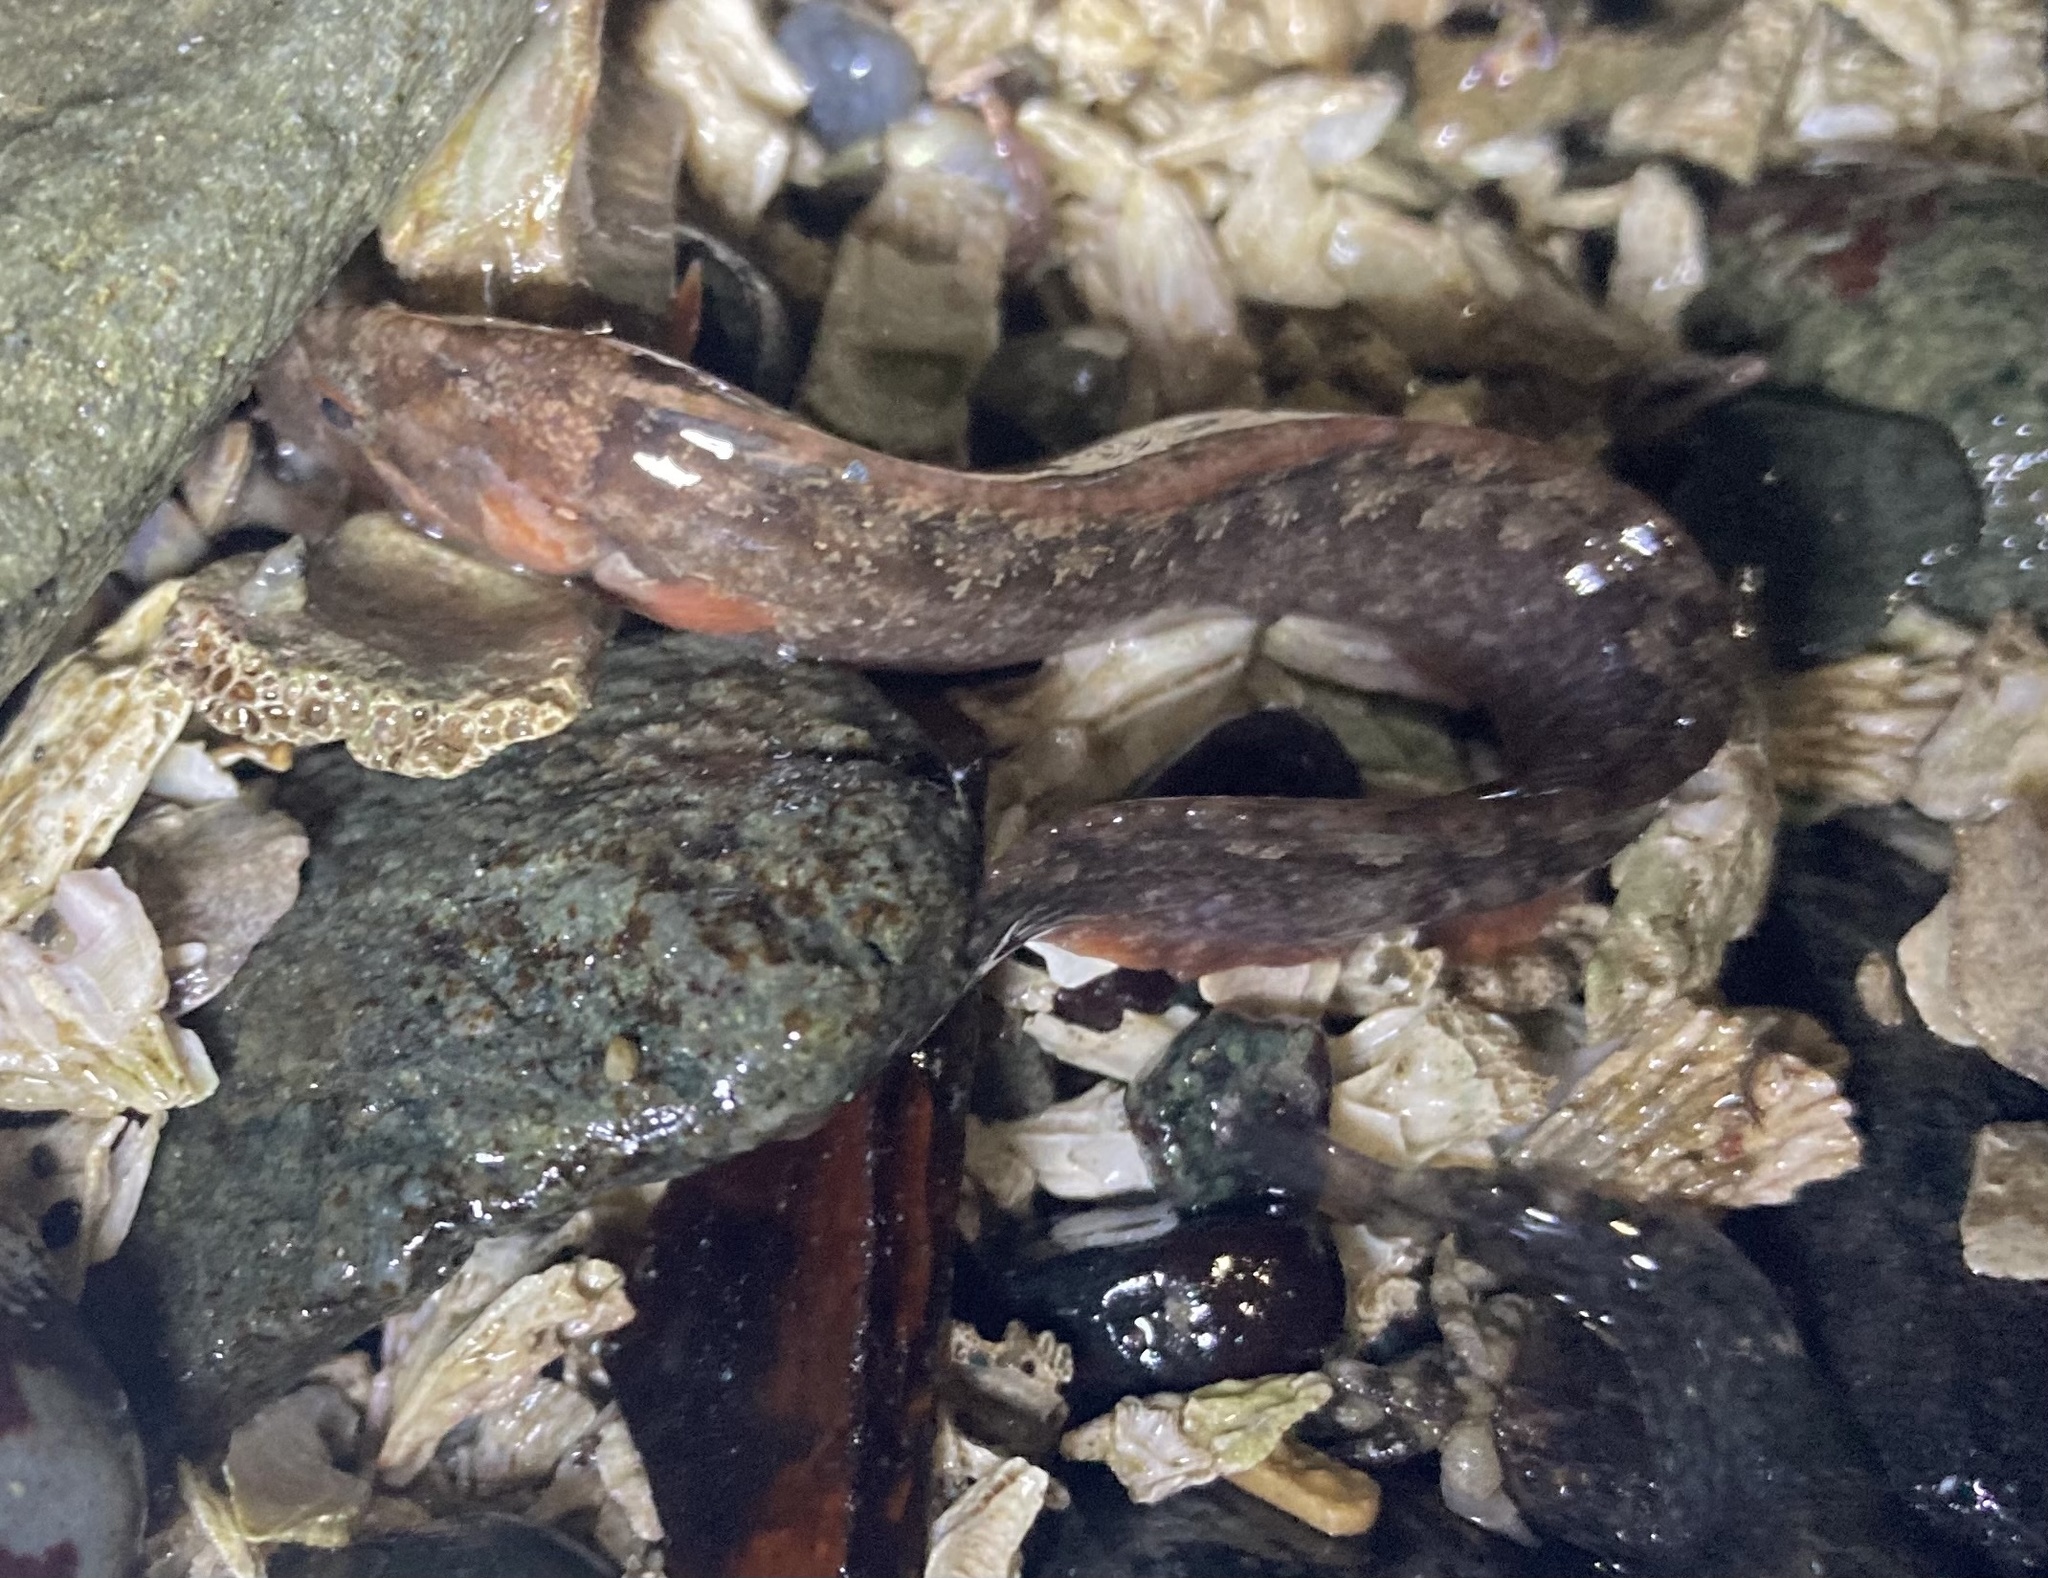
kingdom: Animalia
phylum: Chordata
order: Perciformes
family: Stichaeidae
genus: Anoplarchus
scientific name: Anoplarchus purpurescens
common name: High cockscomb
